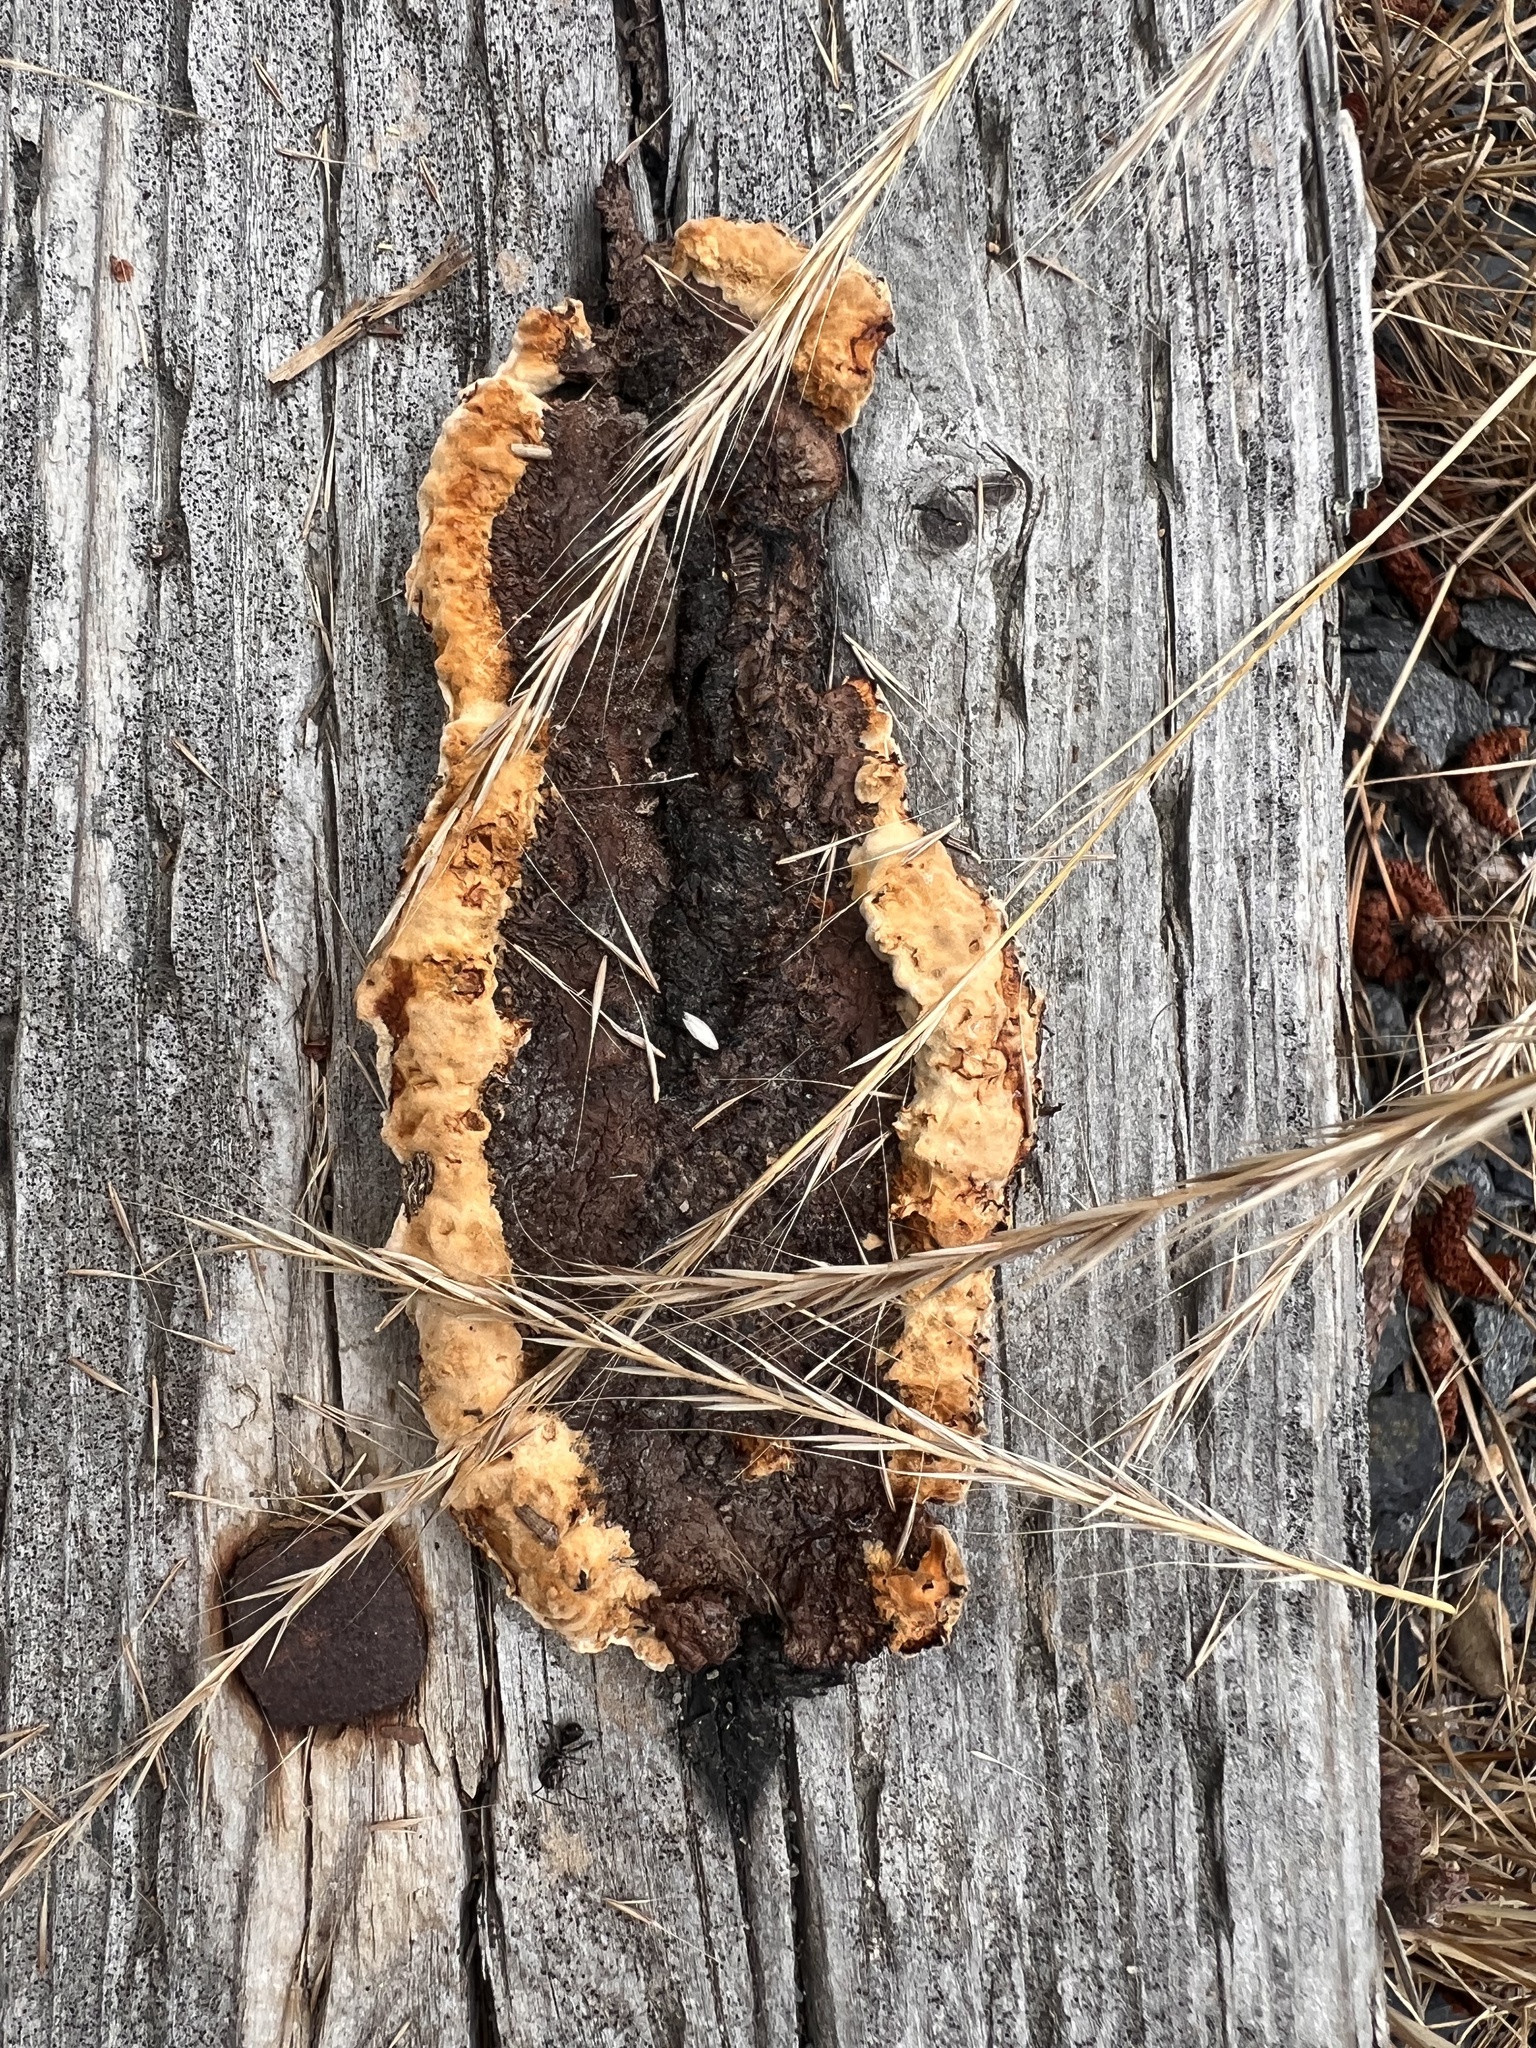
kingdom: Fungi
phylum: Basidiomycota
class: Agaricomycetes
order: Gloeophyllales
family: Gloeophyllaceae
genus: Gloeophyllum
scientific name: Gloeophyllum sepiarium
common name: Conifer mazegill
